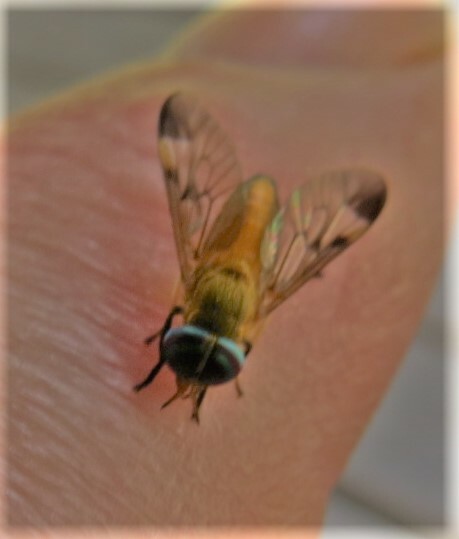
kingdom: Animalia
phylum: Arthropoda
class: Insecta
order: Diptera
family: Tabanidae
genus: Diachlorus
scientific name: Diachlorus ferrugatus
